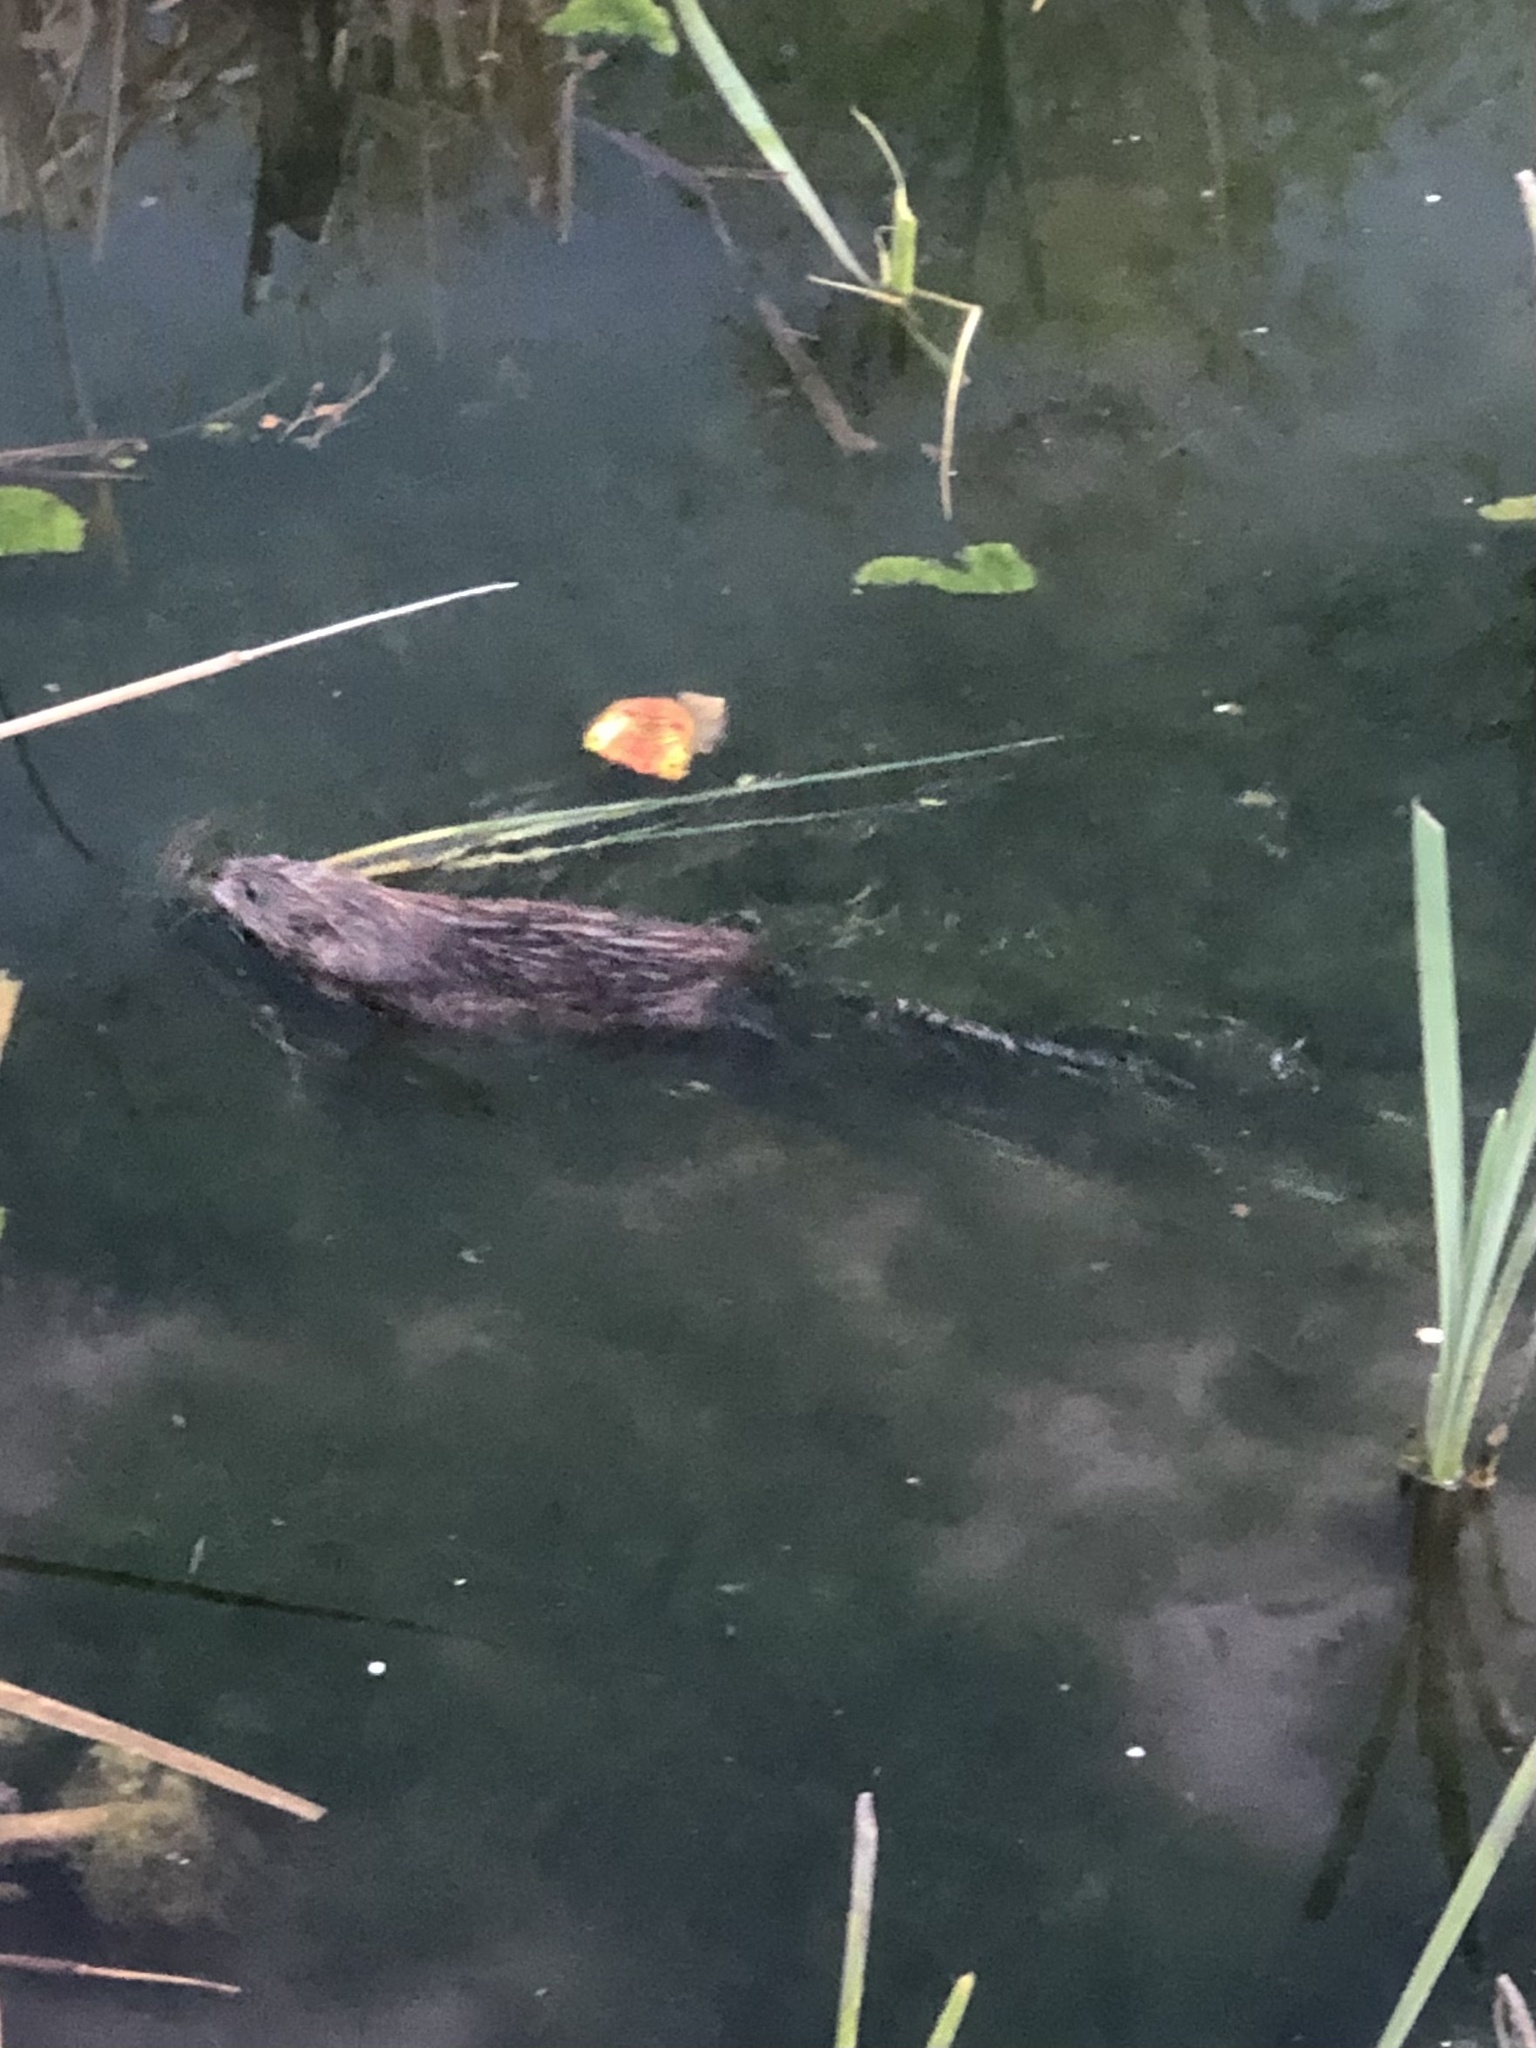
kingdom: Animalia
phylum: Chordata
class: Mammalia
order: Rodentia
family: Cricetidae
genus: Ondatra
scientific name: Ondatra zibethicus
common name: Muskrat
